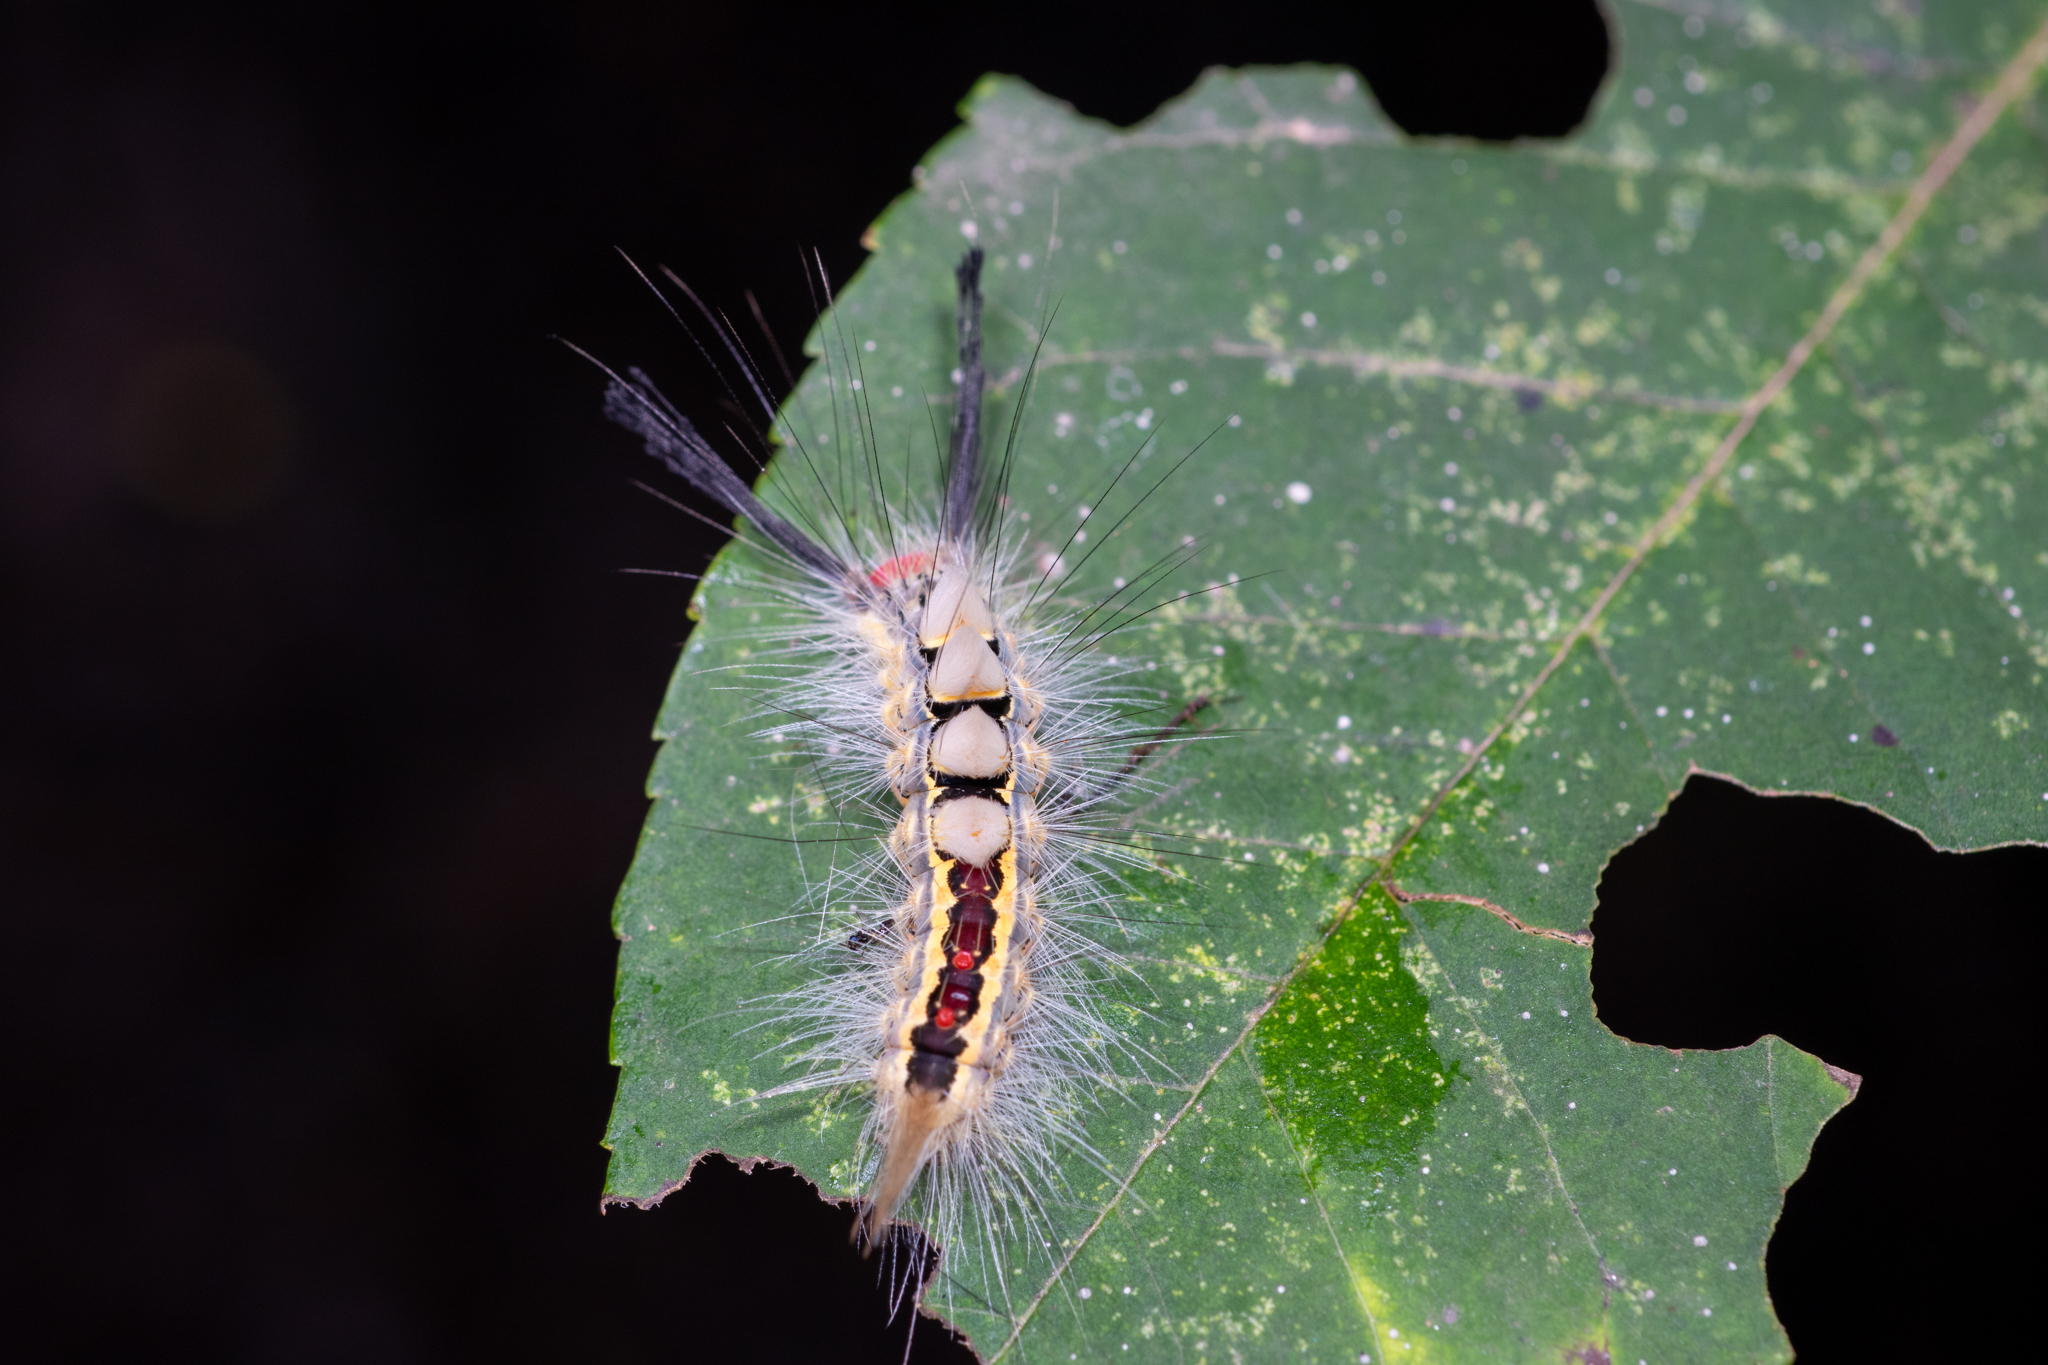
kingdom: Animalia
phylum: Arthropoda
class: Insecta
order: Lepidoptera
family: Erebidae
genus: Orgyia
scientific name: Orgyia leucostigma
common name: White-marked tussock moth
